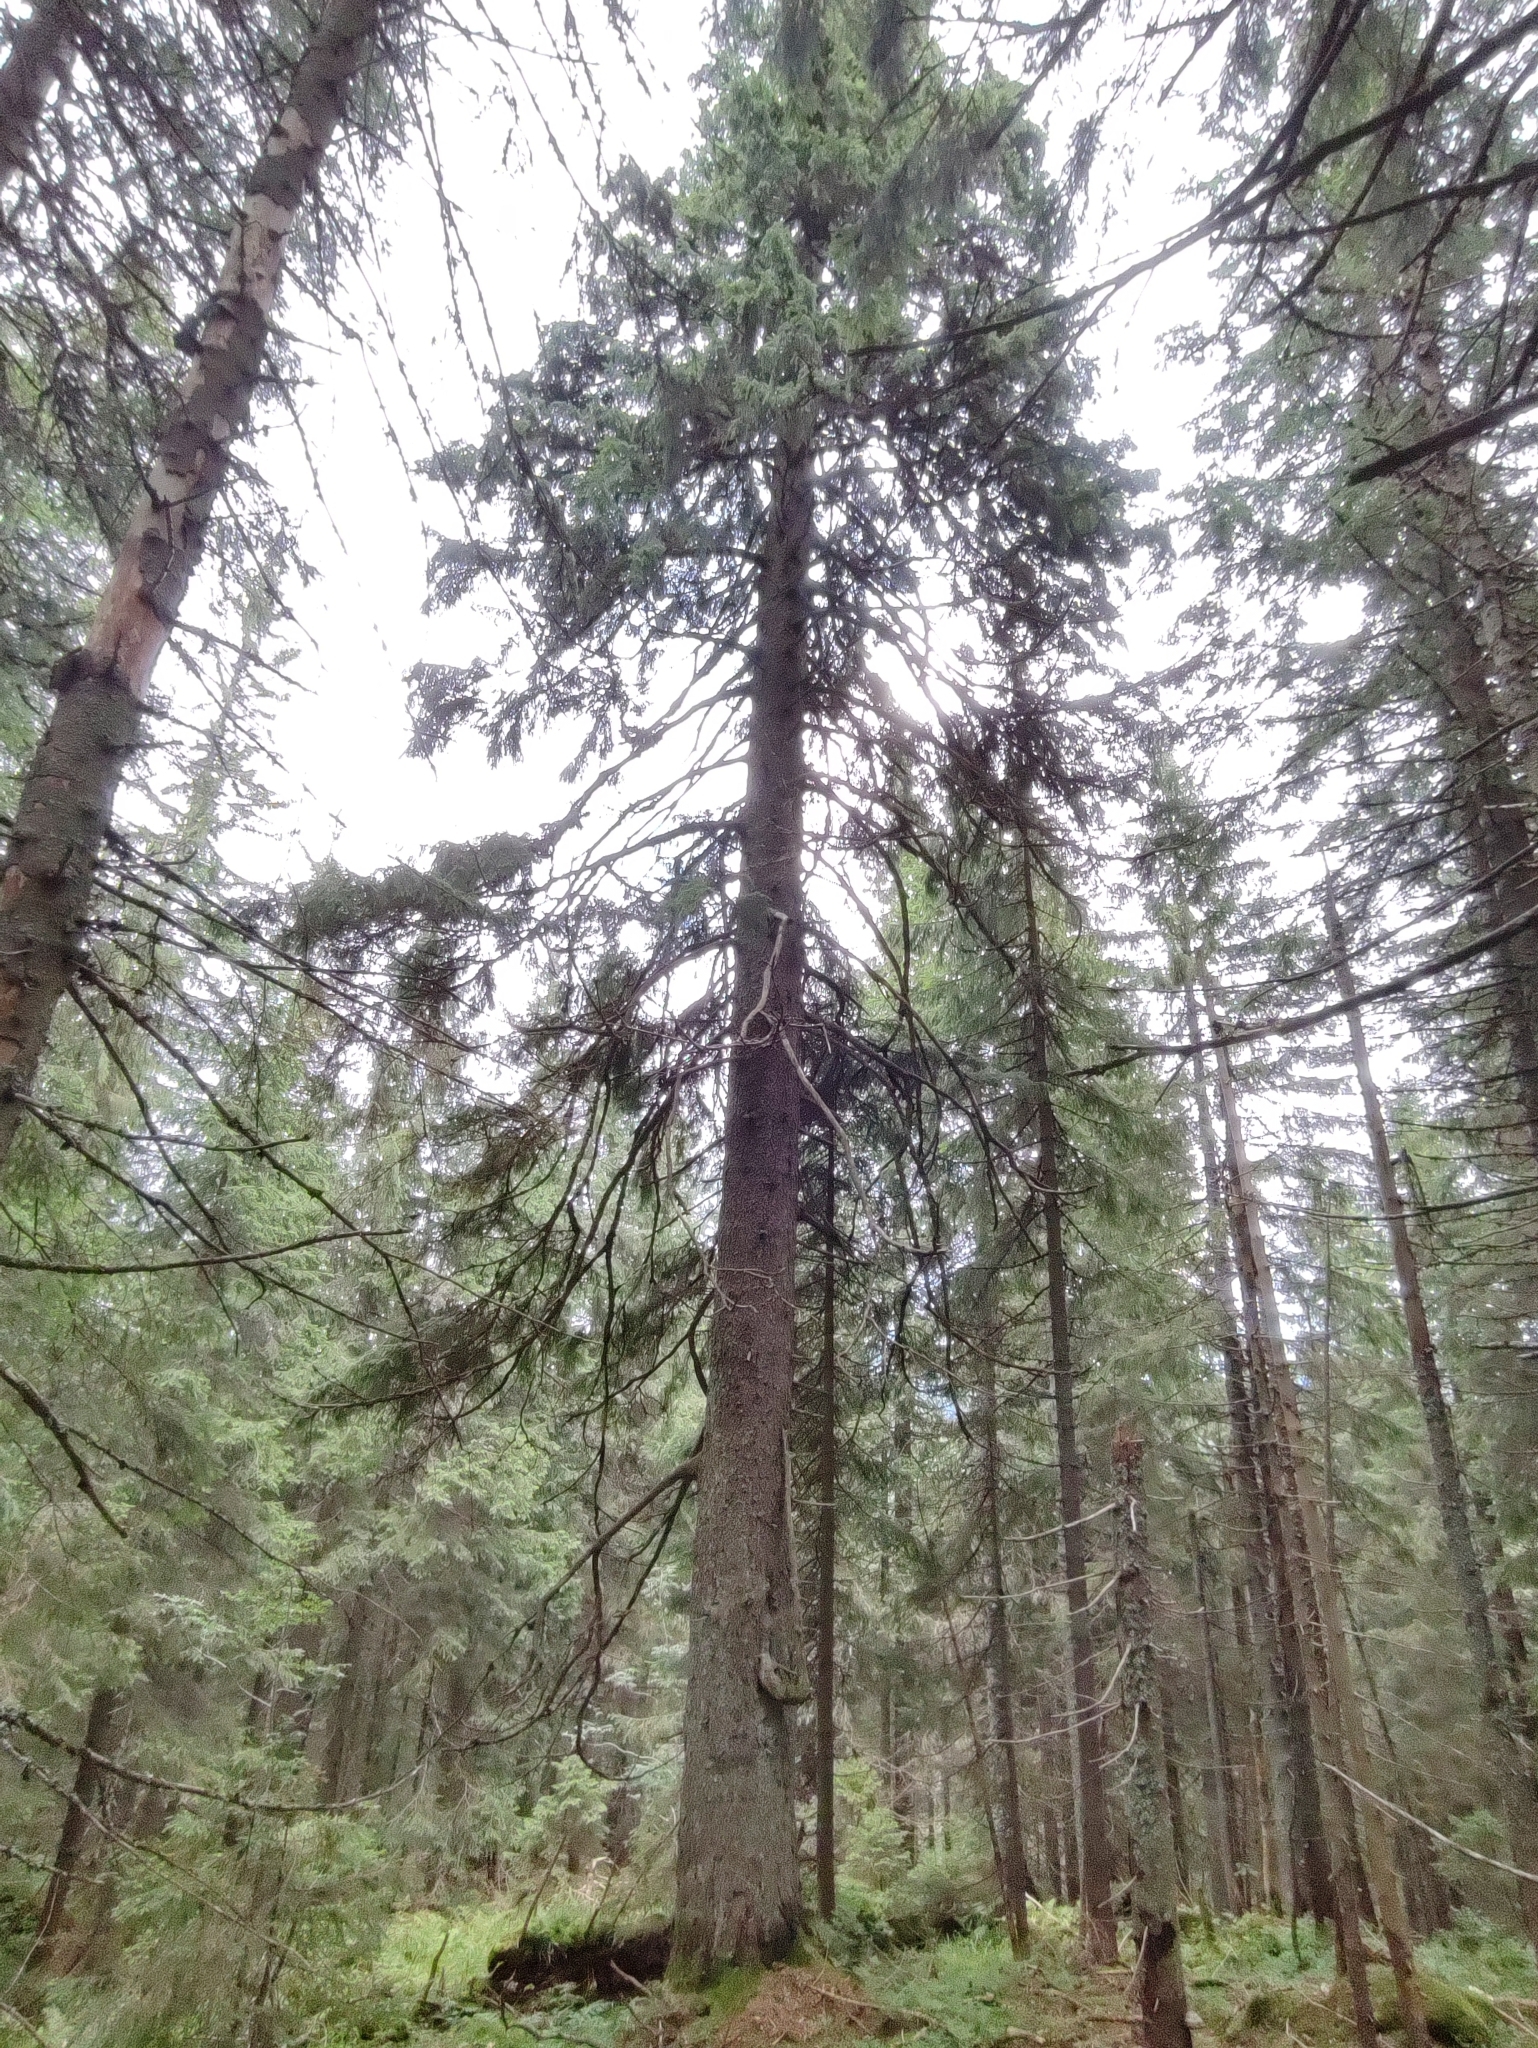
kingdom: Plantae
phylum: Tracheophyta
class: Pinopsida
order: Pinales
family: Pinaceae
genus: Picea
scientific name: Picea abies
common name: Norway spruce
